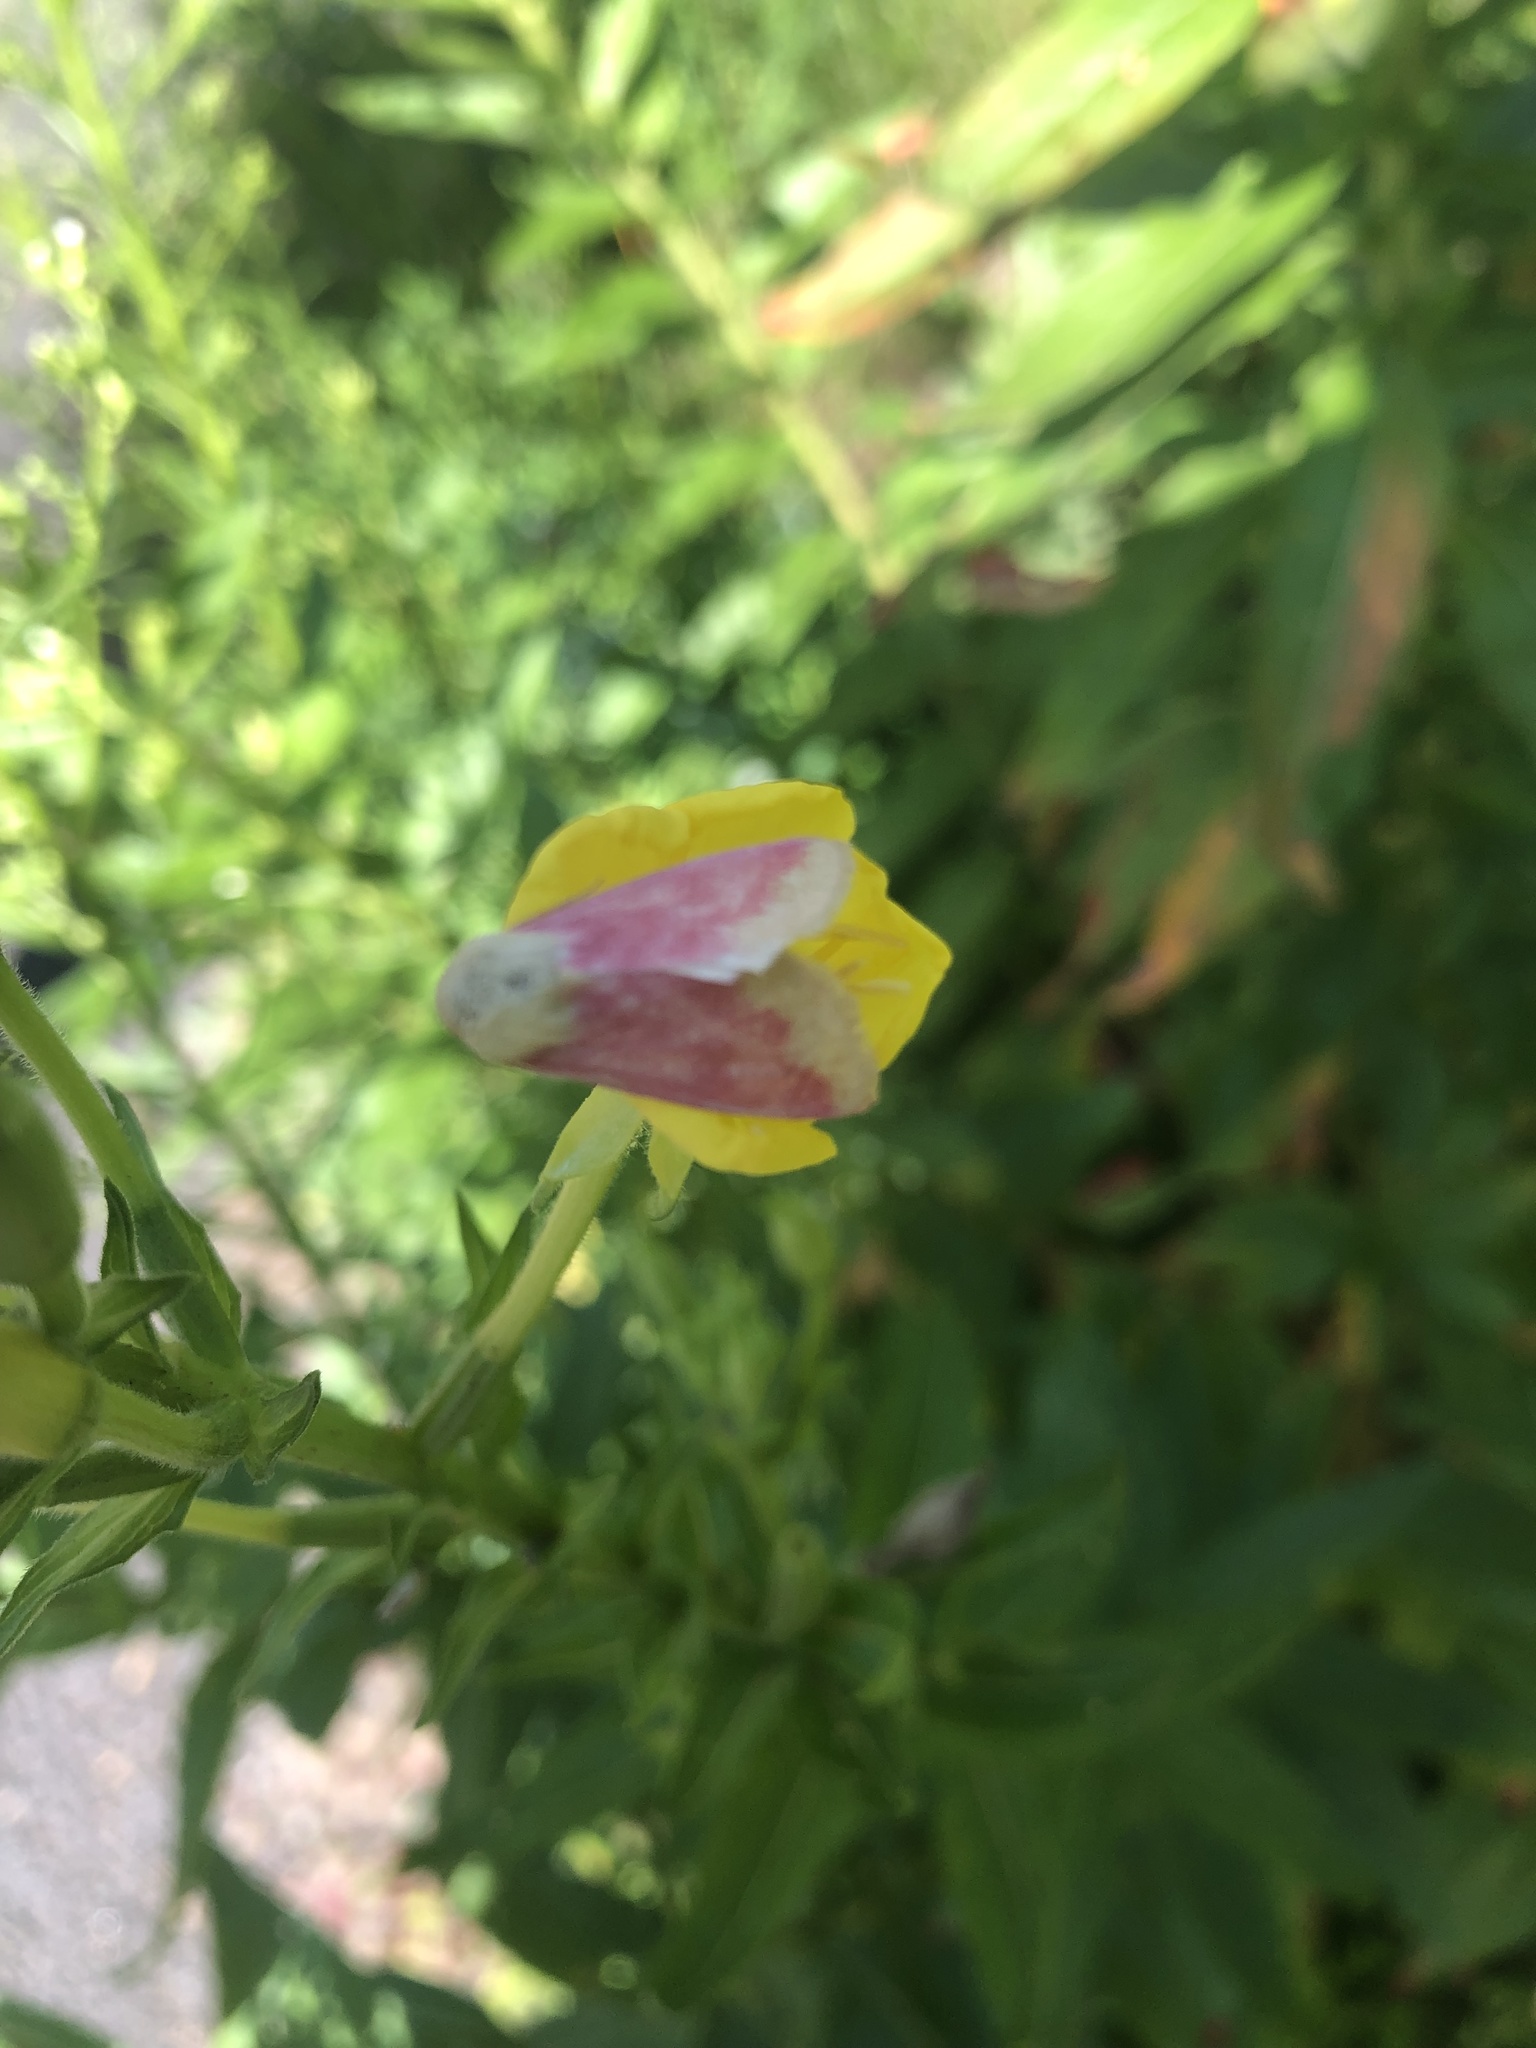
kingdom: Animalia
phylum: Arthropoda
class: Insecta
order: Lepidoptera
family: Noctuidae
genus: Schinia
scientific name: Schinia florida
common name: Primrose moth
